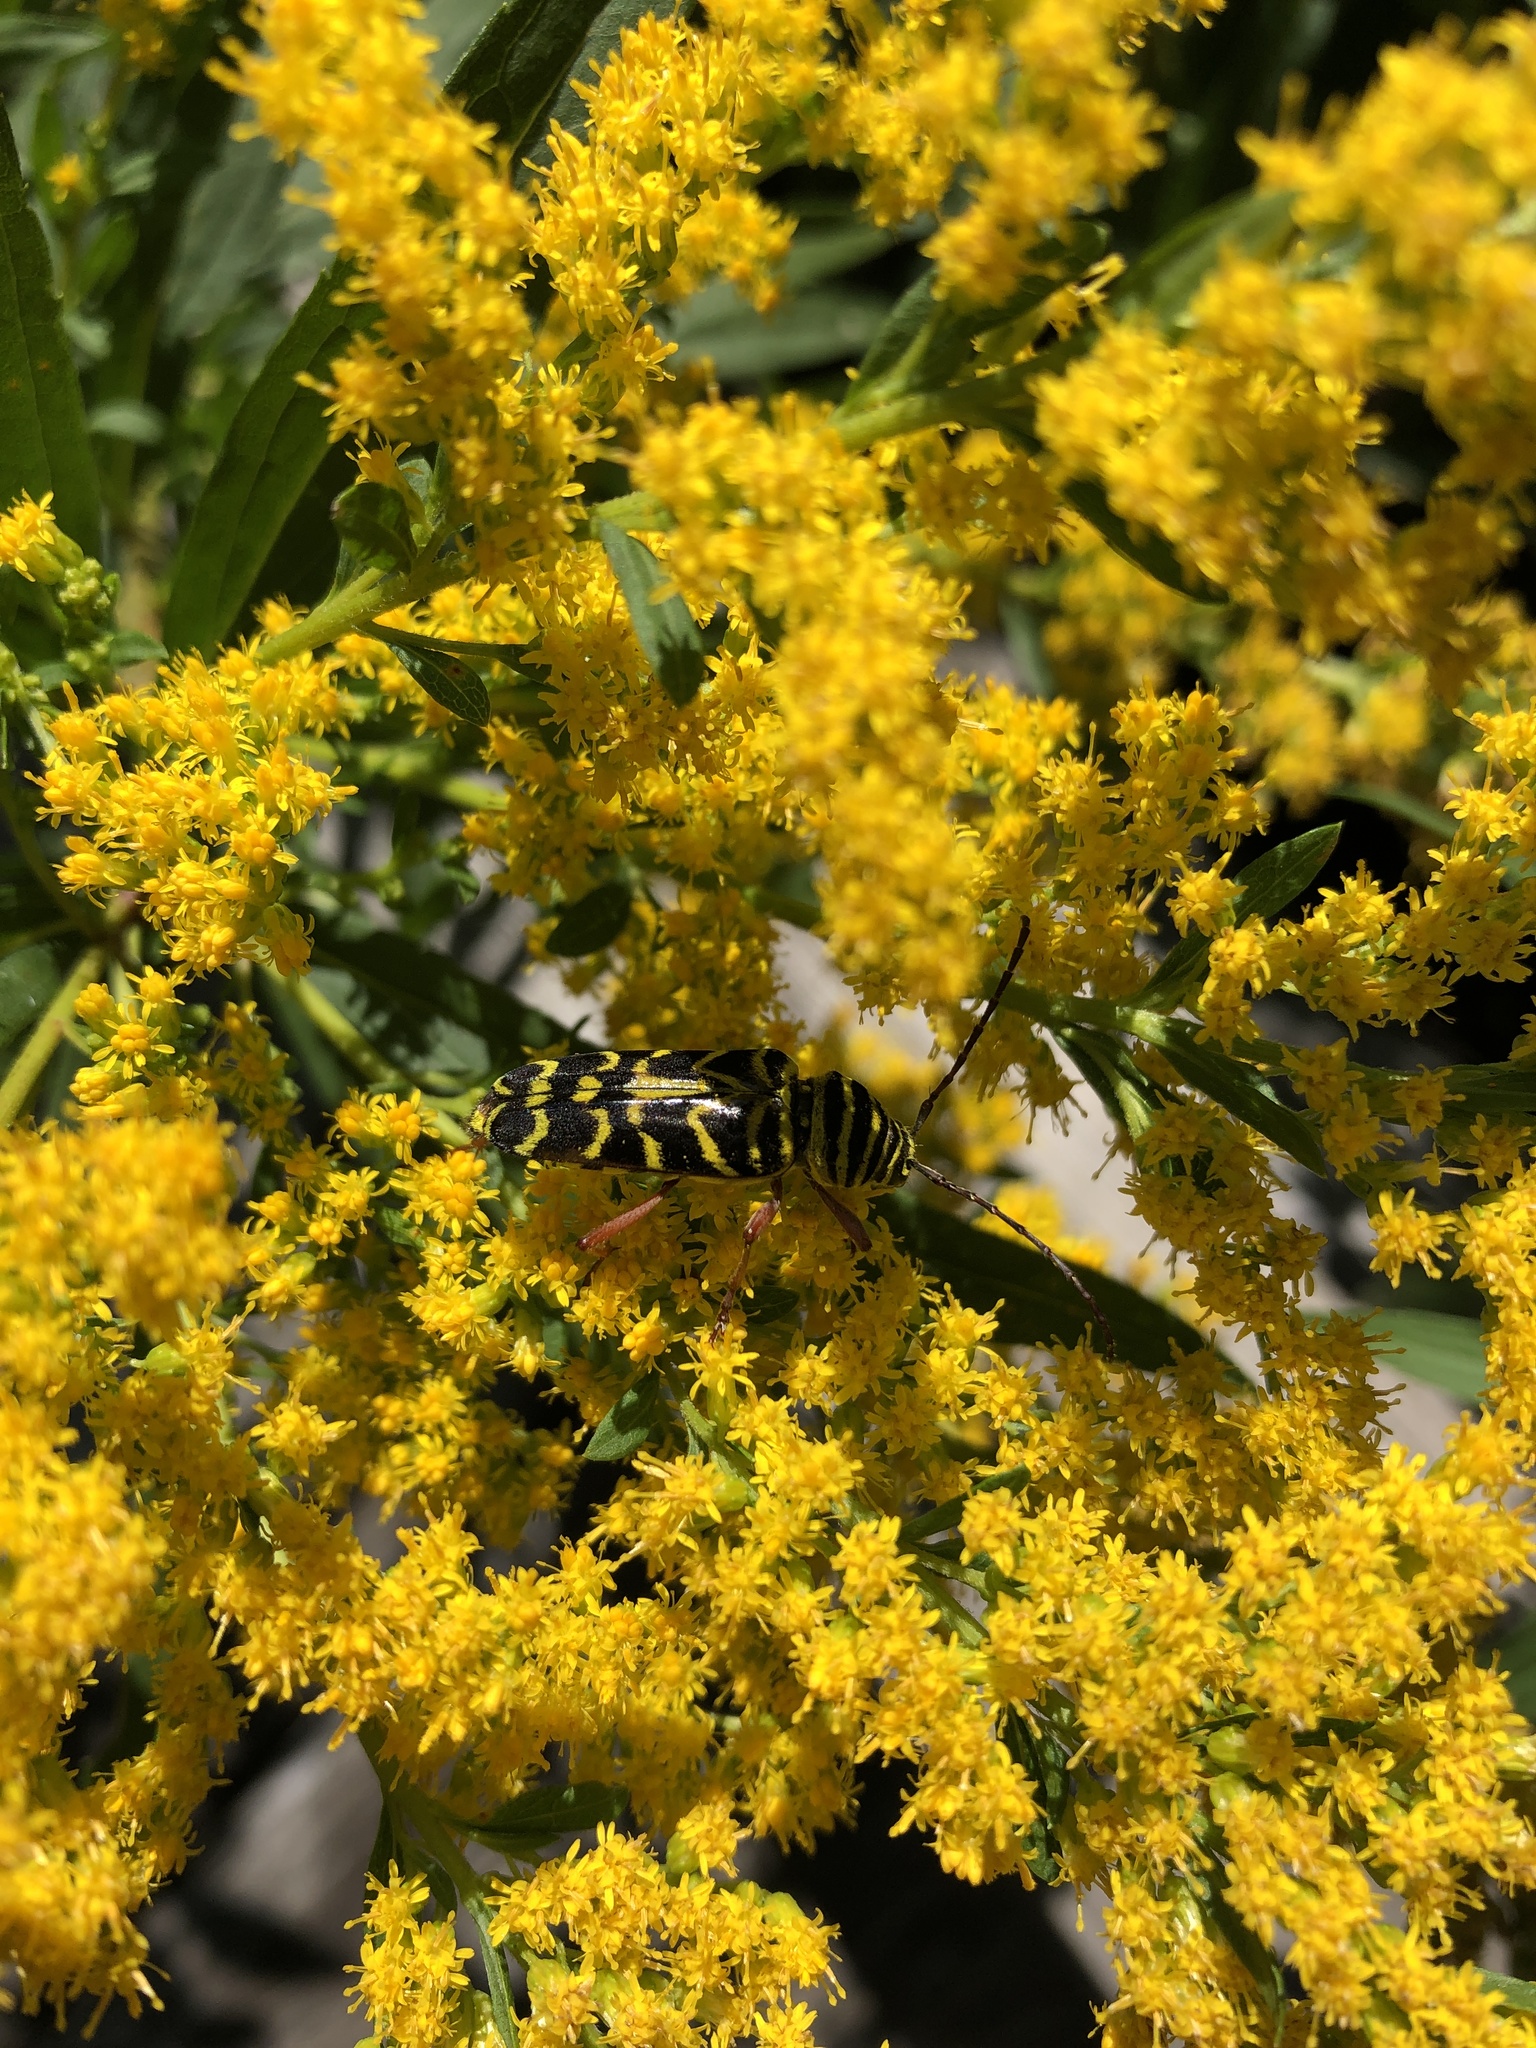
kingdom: Animalia
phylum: Arthropoda
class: Insecta
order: Coleoptera
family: Cerambycidae
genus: Megacyllene
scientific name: Megacyllene robiniae
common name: Locust borer
